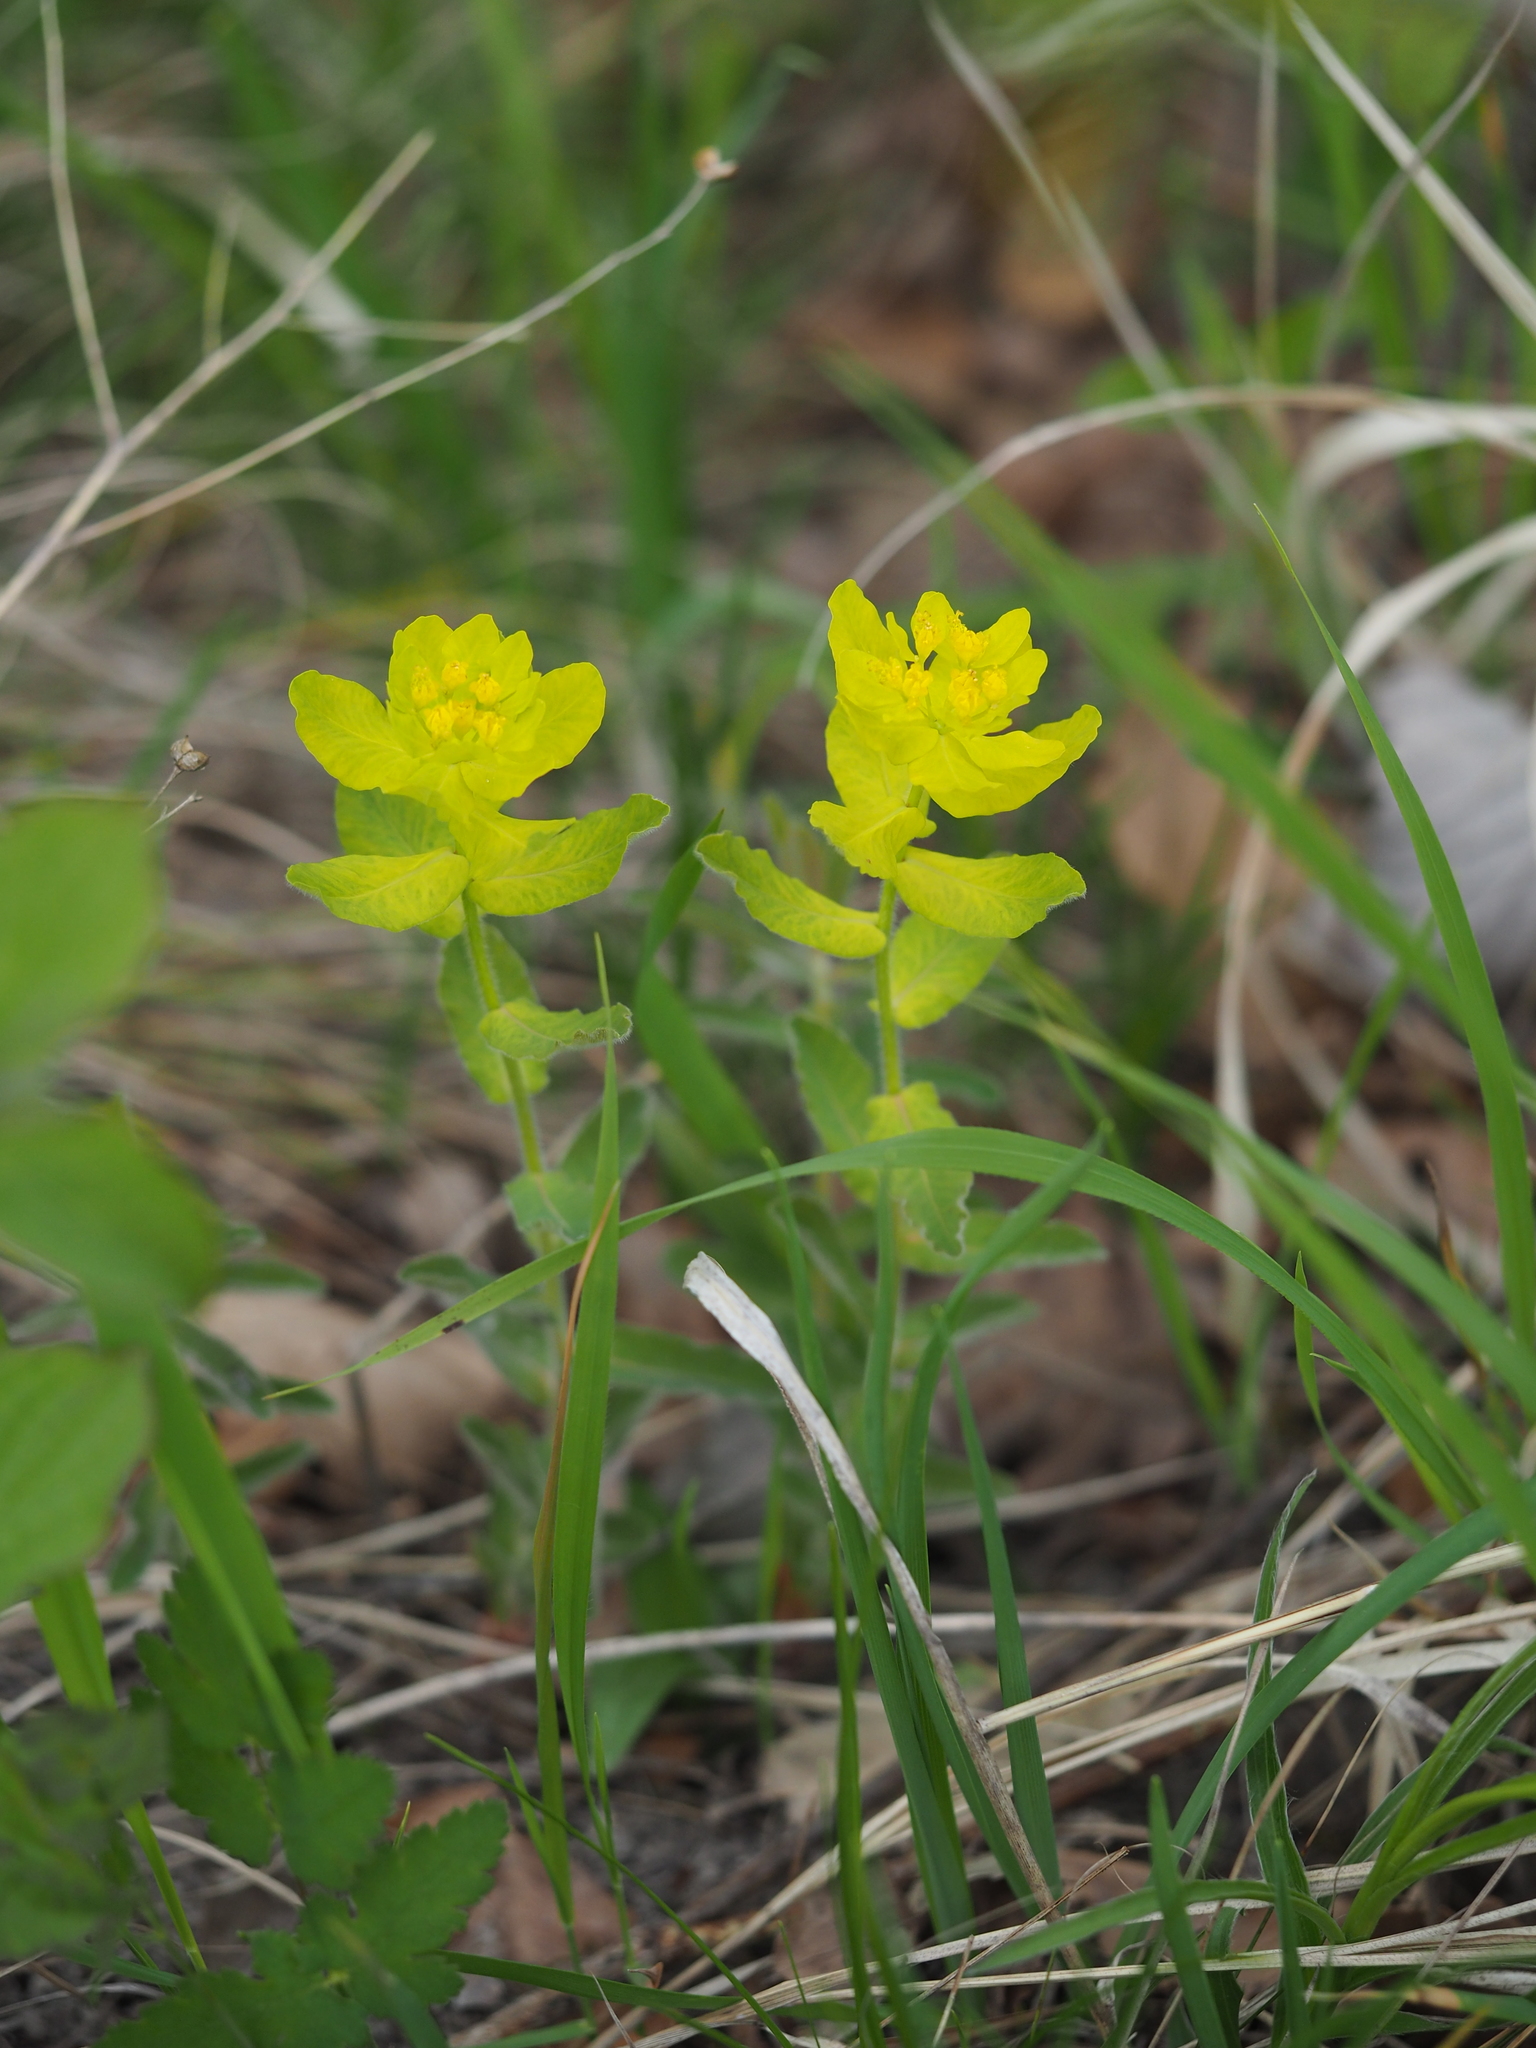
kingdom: Plantae
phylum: Tracheophyta
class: Magnoliopsida
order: Malpighiales
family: Euphorbiaceae
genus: Euphorbia
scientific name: Euphorbia epithymoides
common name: Cushion spurge
